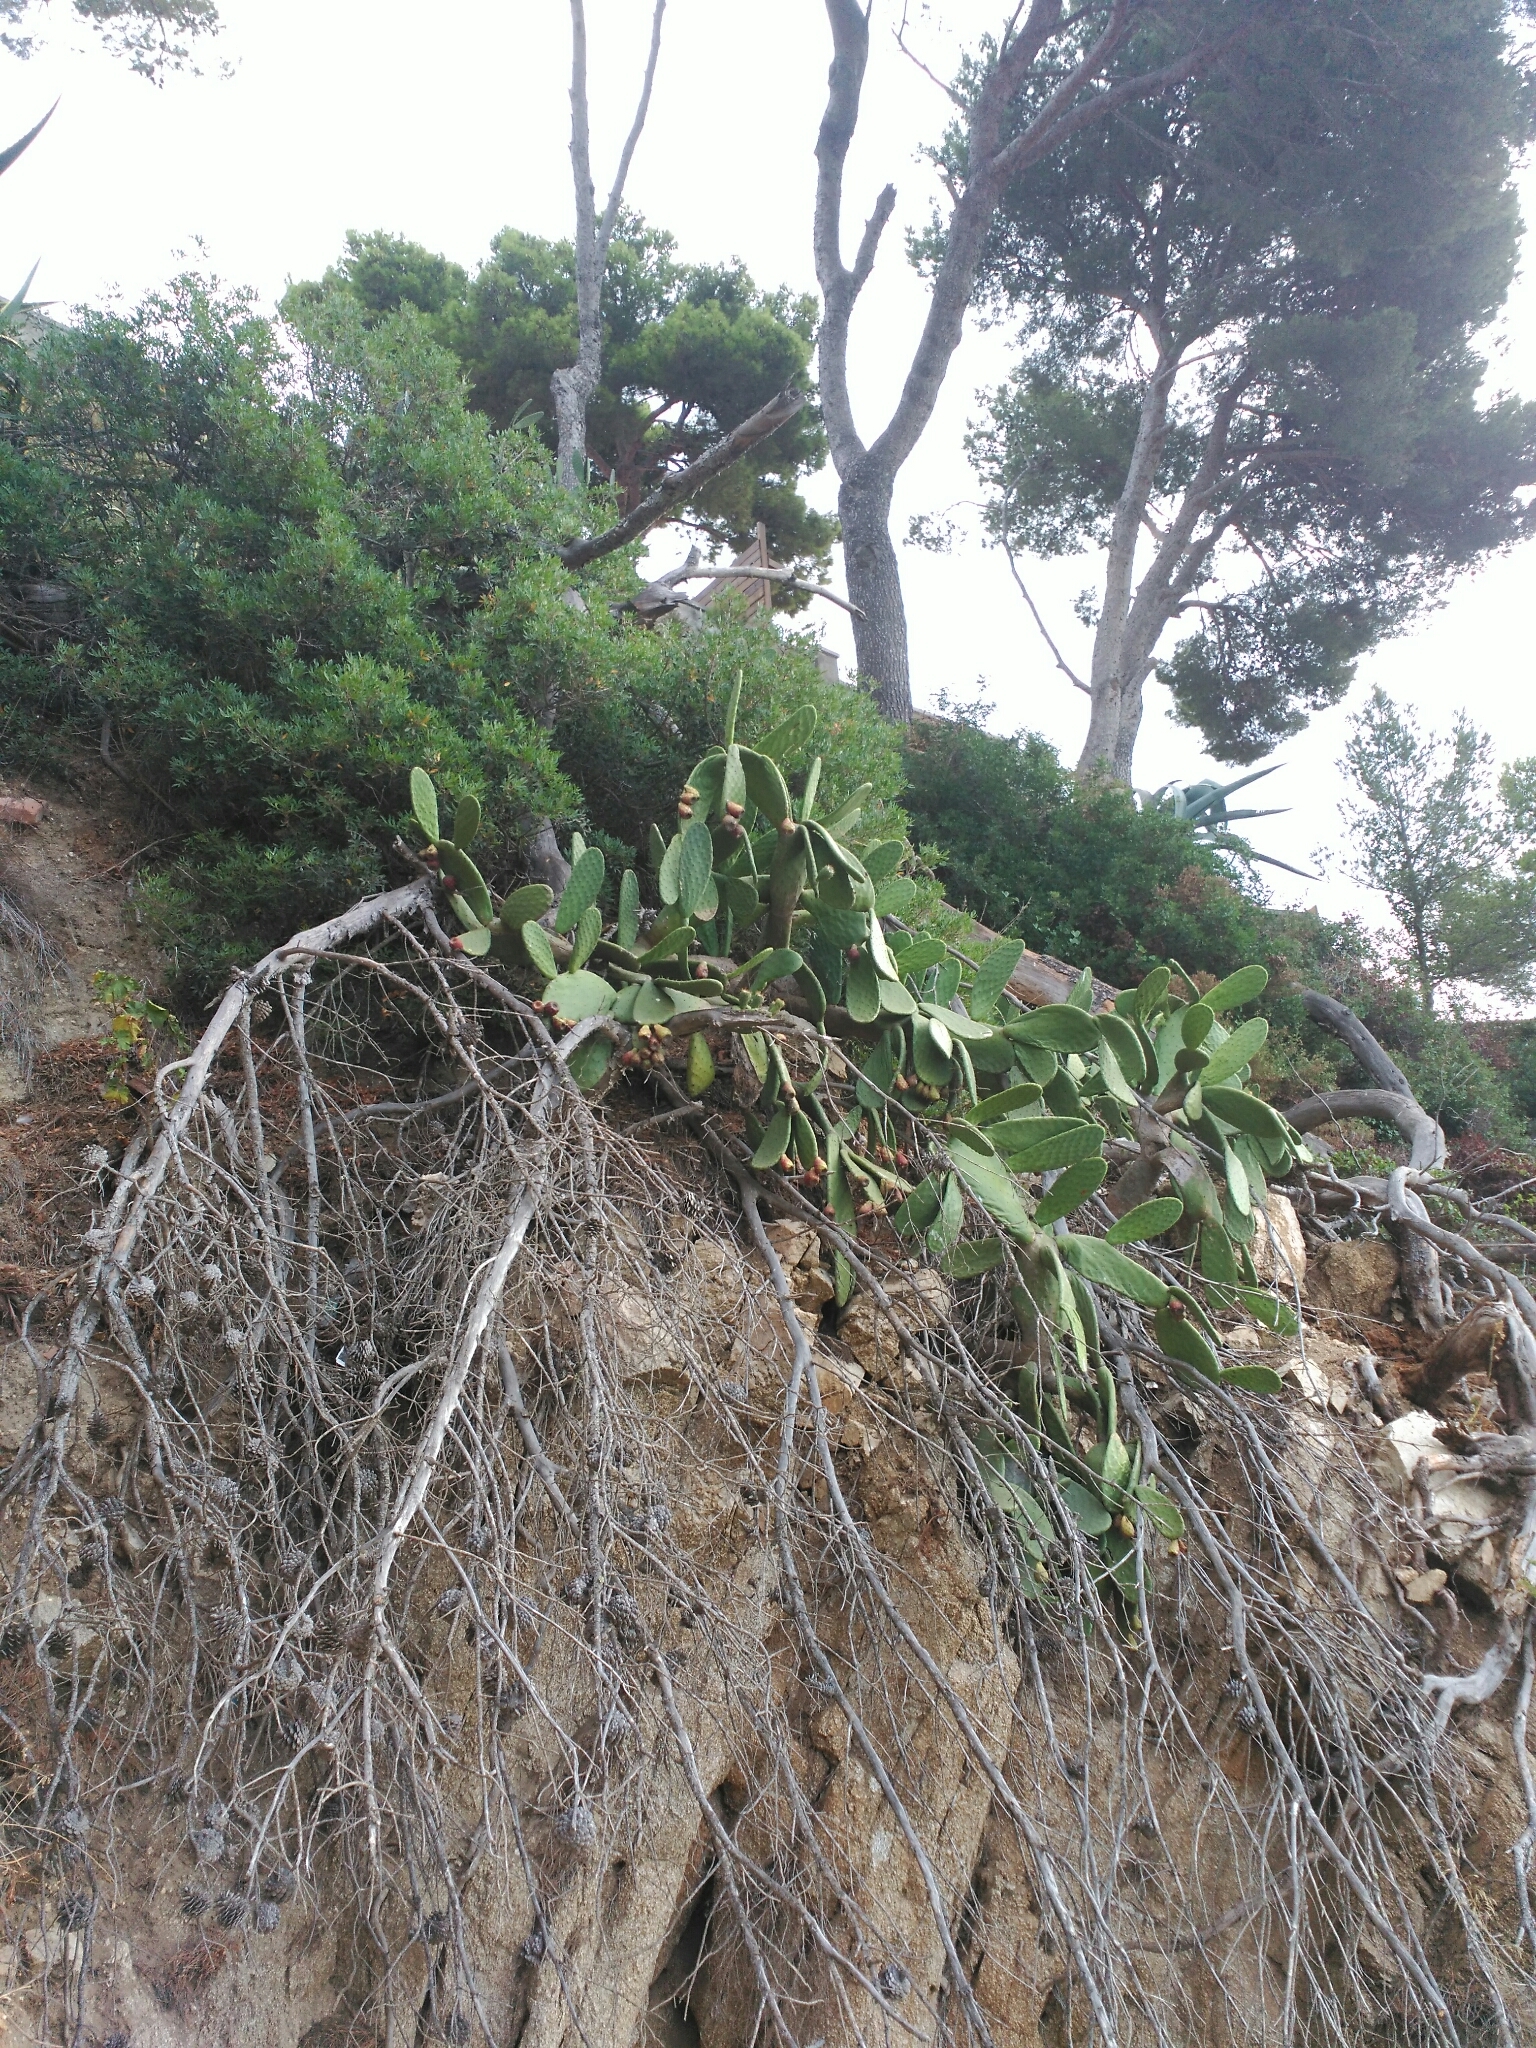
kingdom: Plantae
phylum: Tracheophyta
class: Magnoliopsida
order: Caryophyllales
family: Cactaceae
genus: Opuntia
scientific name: Opuntia ficus-indica
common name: Barbary fig
